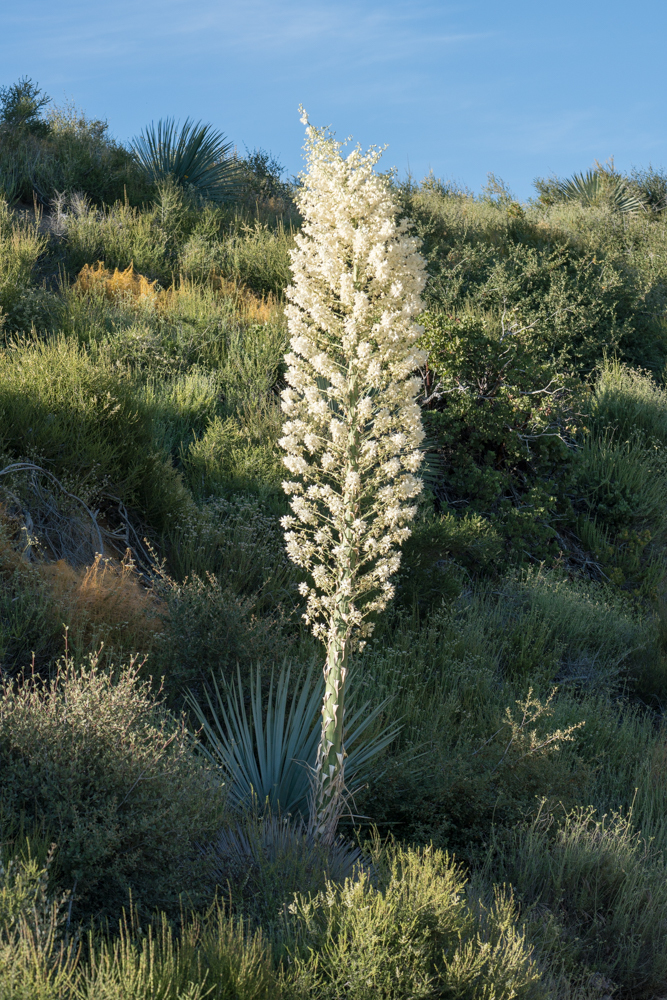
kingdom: Plantae
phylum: Tracheophyta
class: Liliopsida
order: Asparagales
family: Asparagaceae
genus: Hesperoyucca
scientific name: Hesperoyucca whipplei
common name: Our lord's-candle
